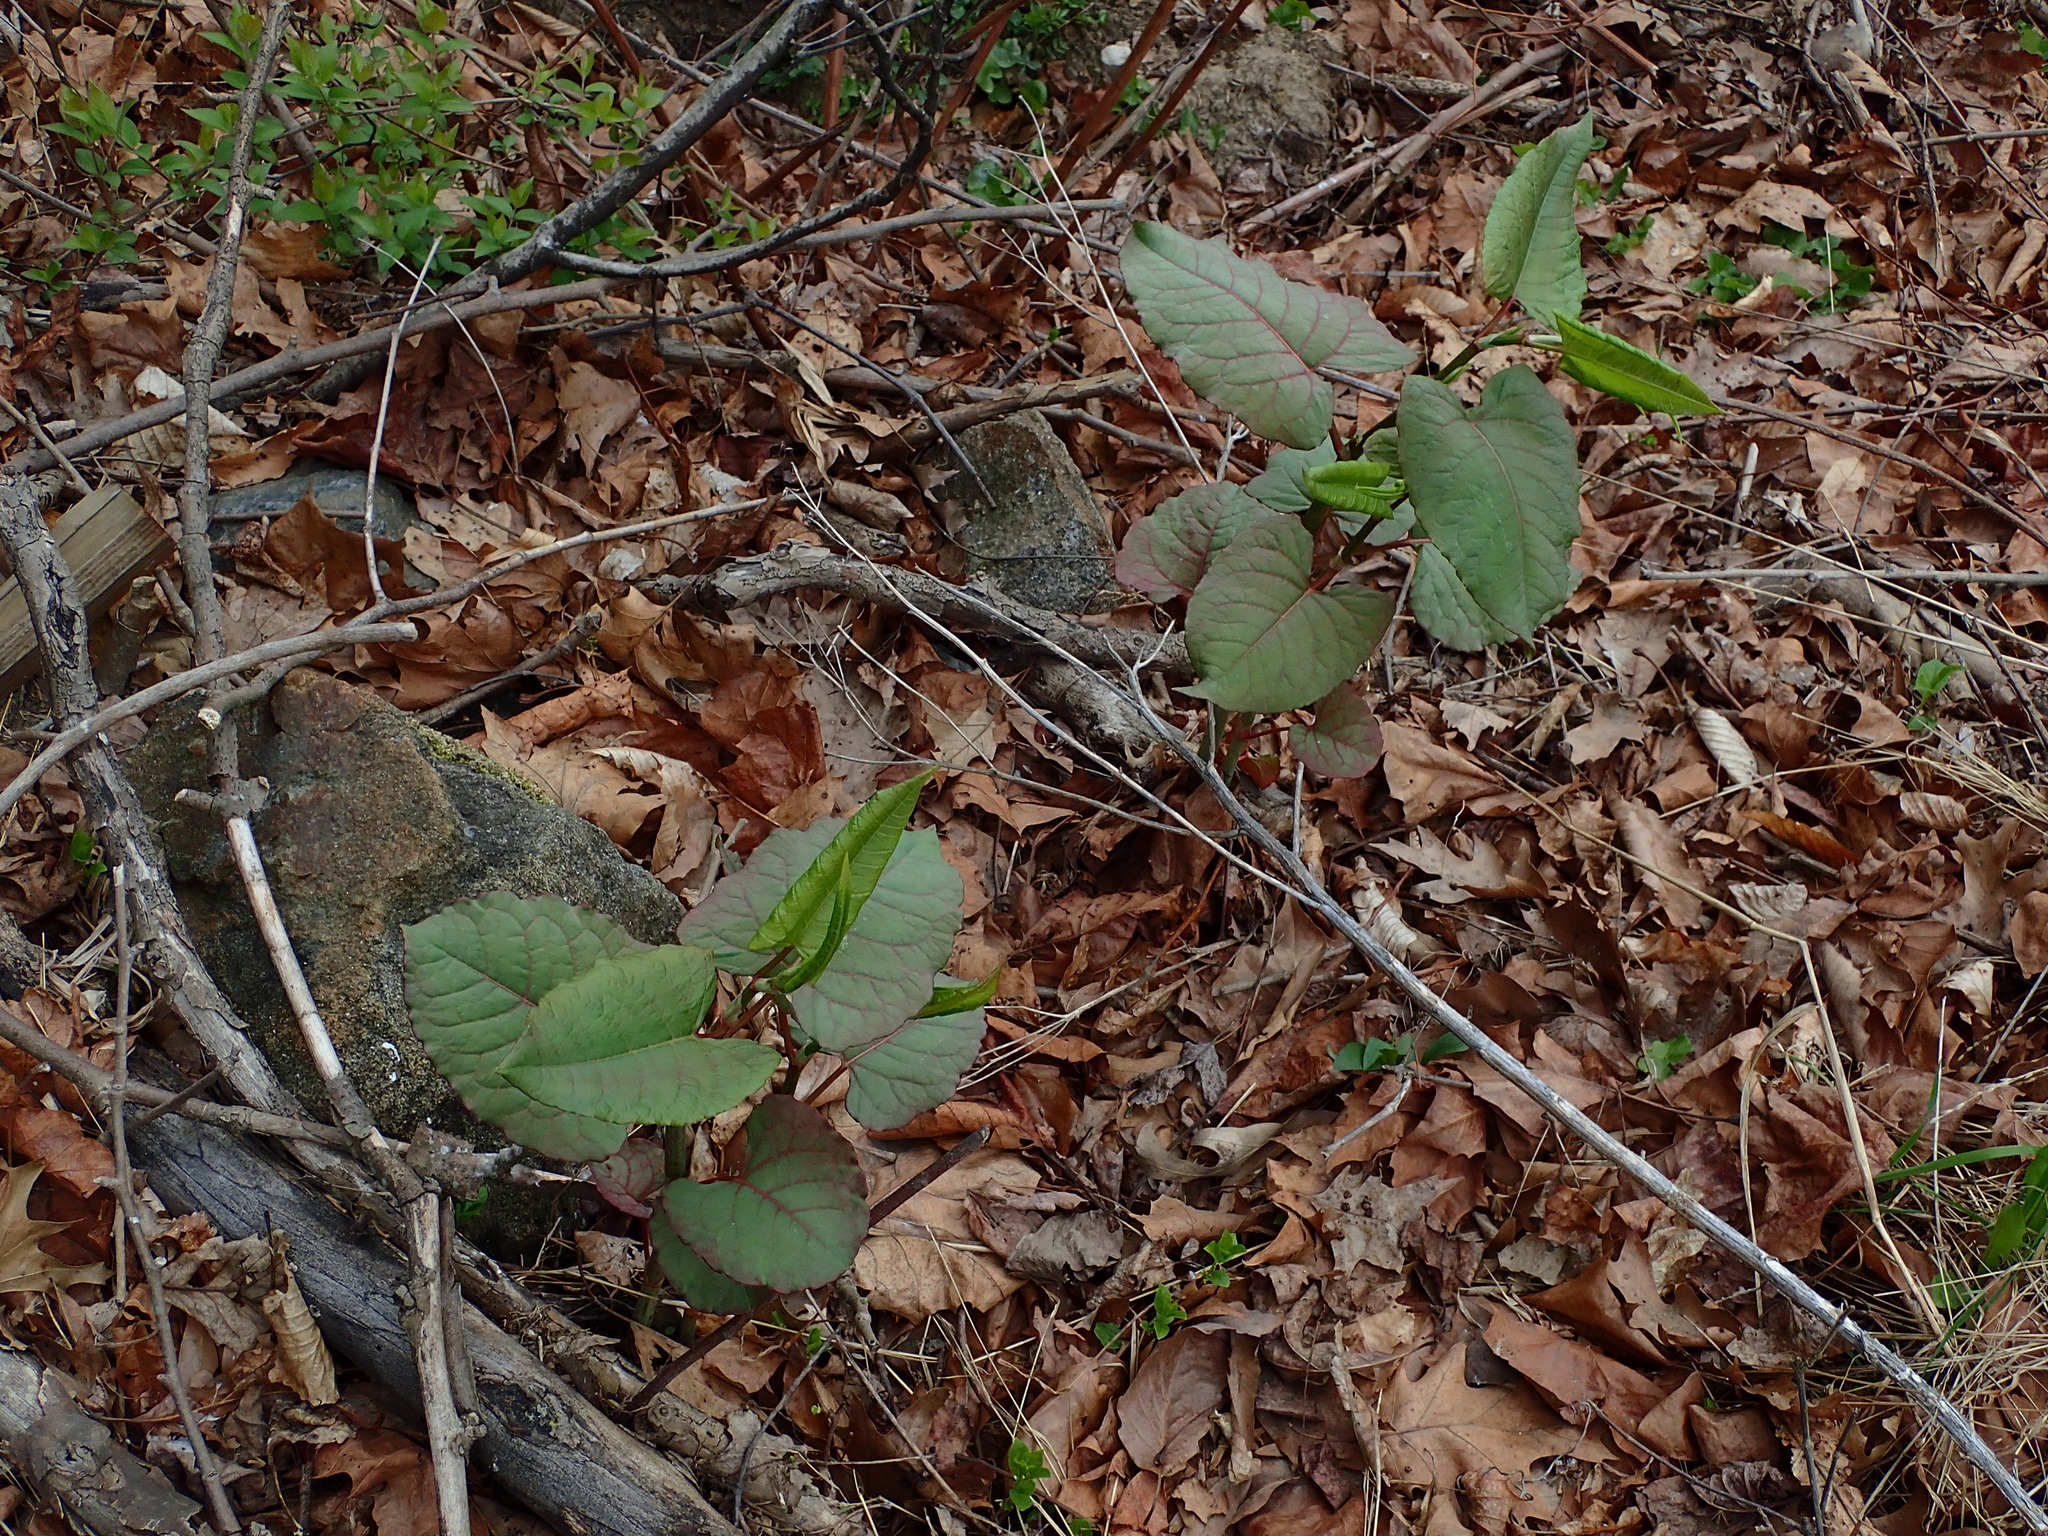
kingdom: Plantae
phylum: Tracheophyta
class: Magnoliopsida
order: Caryophyllales
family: Polygonaceae
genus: Reynoutria
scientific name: Reynoutria japonica
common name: Japanese knotweed
